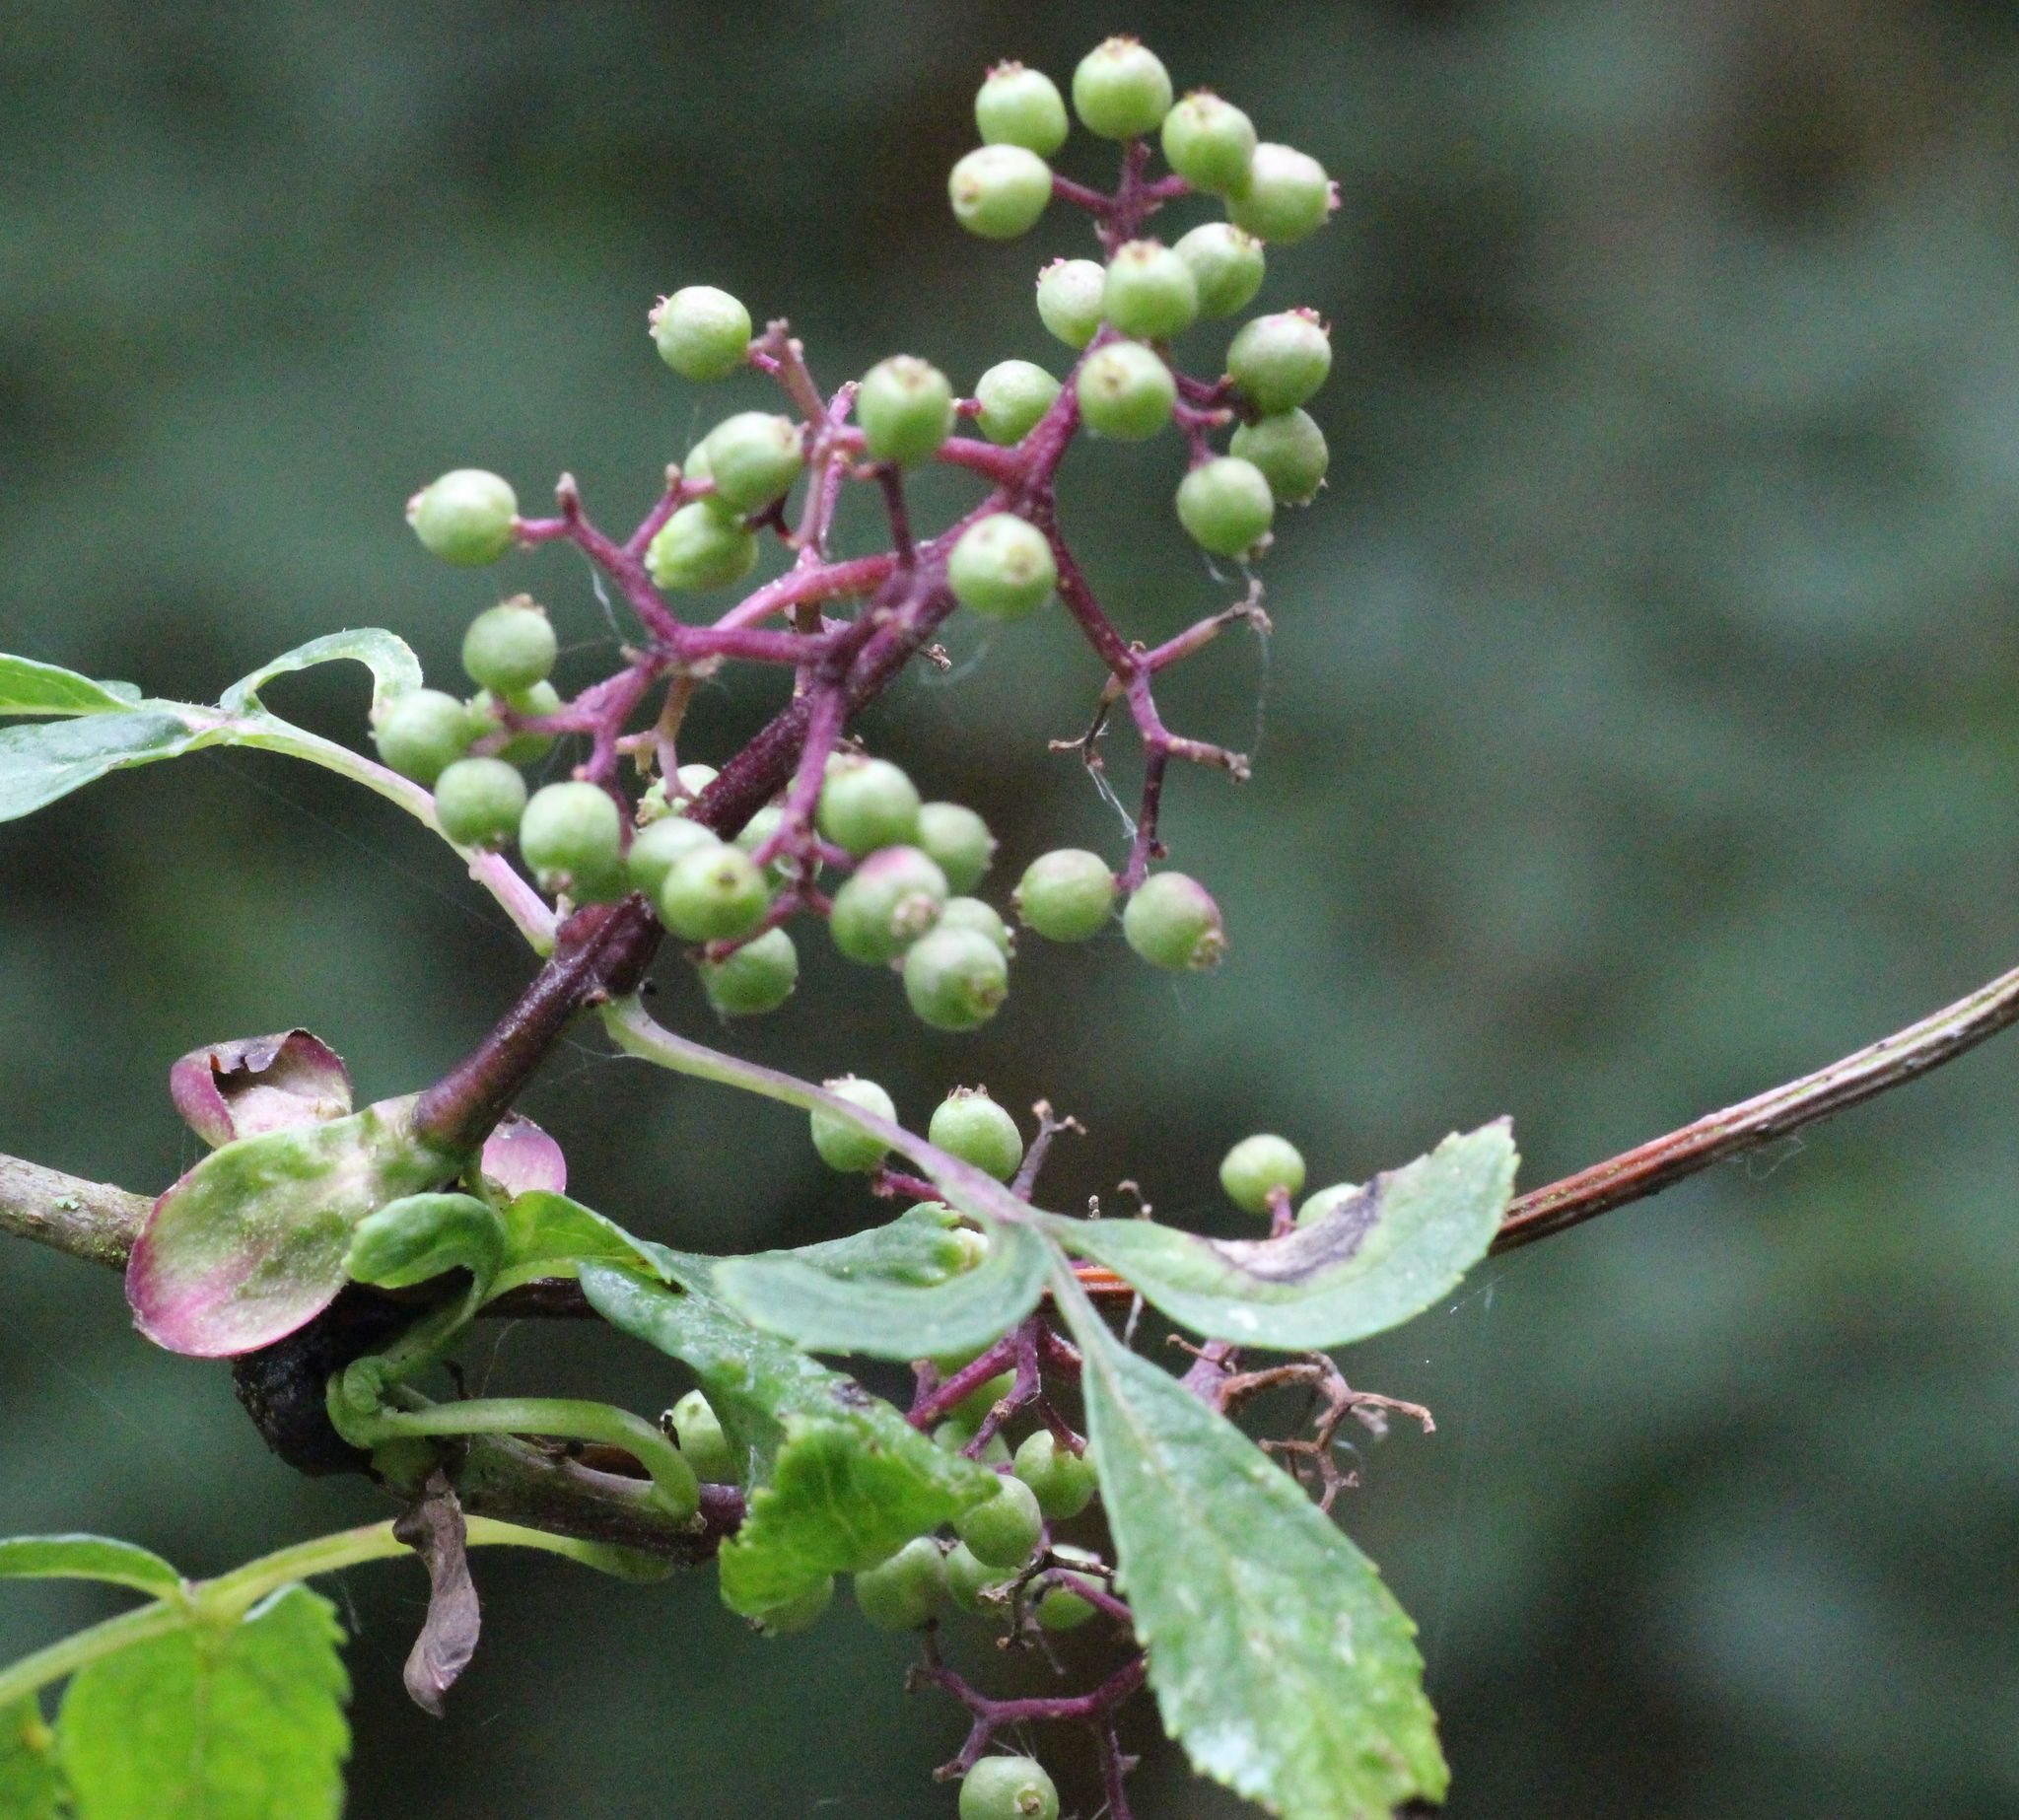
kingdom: Plantae
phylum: Tracheophyta
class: Magnoliopsida
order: Dipsacales
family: Viburnaceae
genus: Sambucus
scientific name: Sambucus racemosa
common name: Red-berried elder
